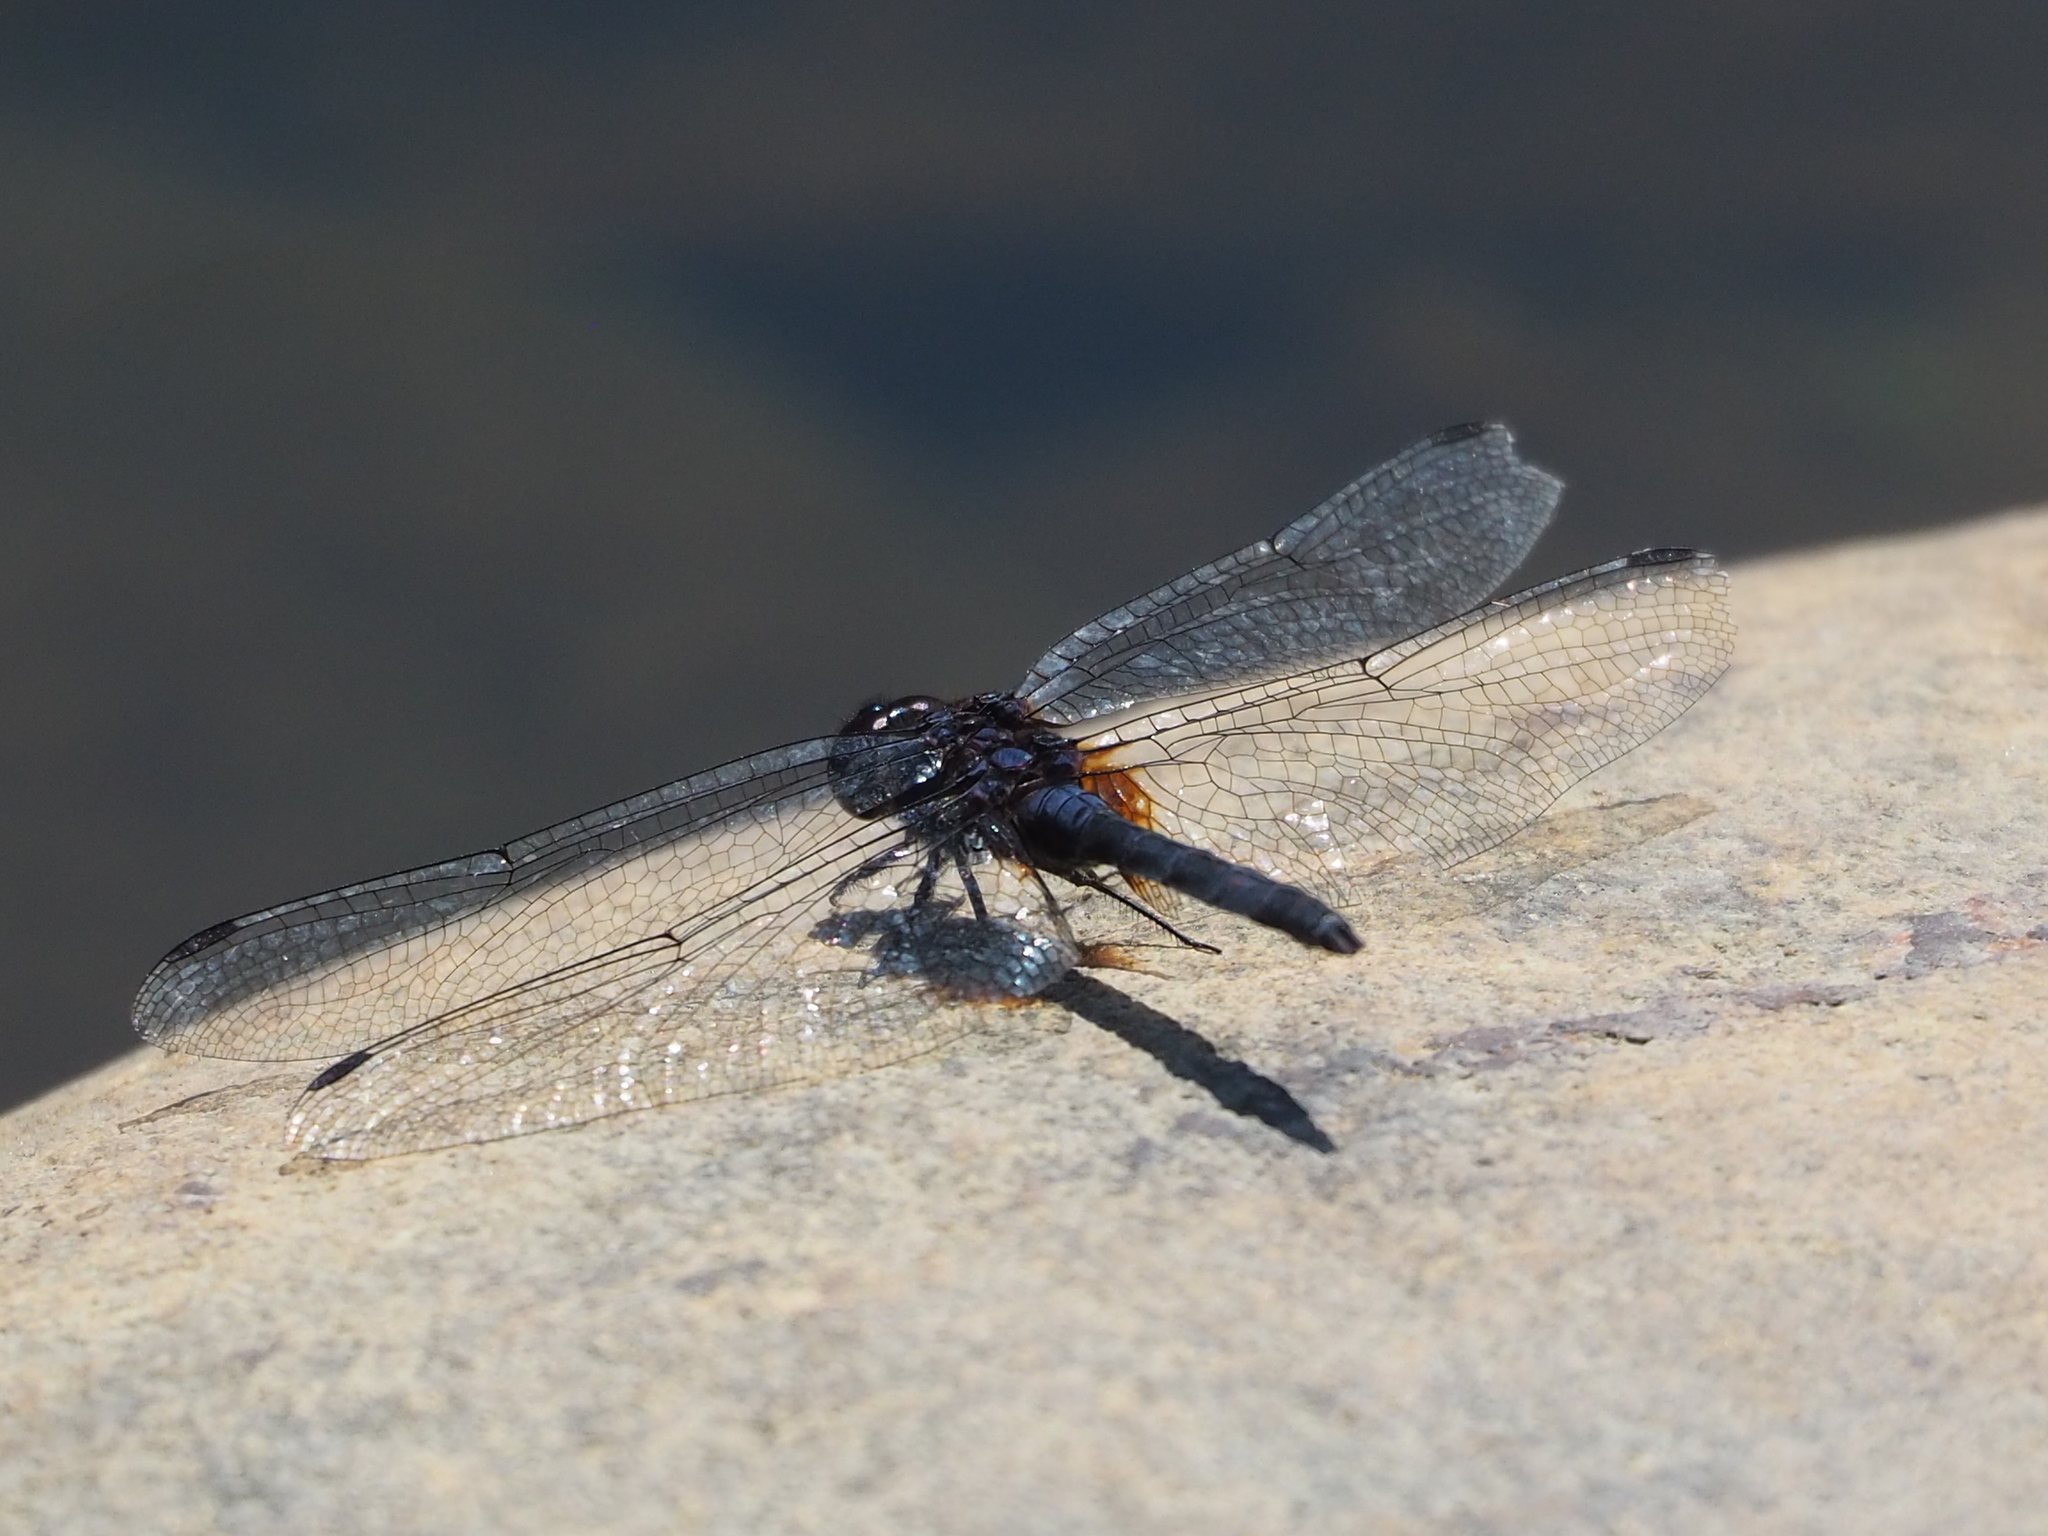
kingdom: Animalia
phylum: Arthropoda
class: Insecta
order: Odonata
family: Libellulidae
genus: Trithemis
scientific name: Trithemis festiva
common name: Indigo dropwing
